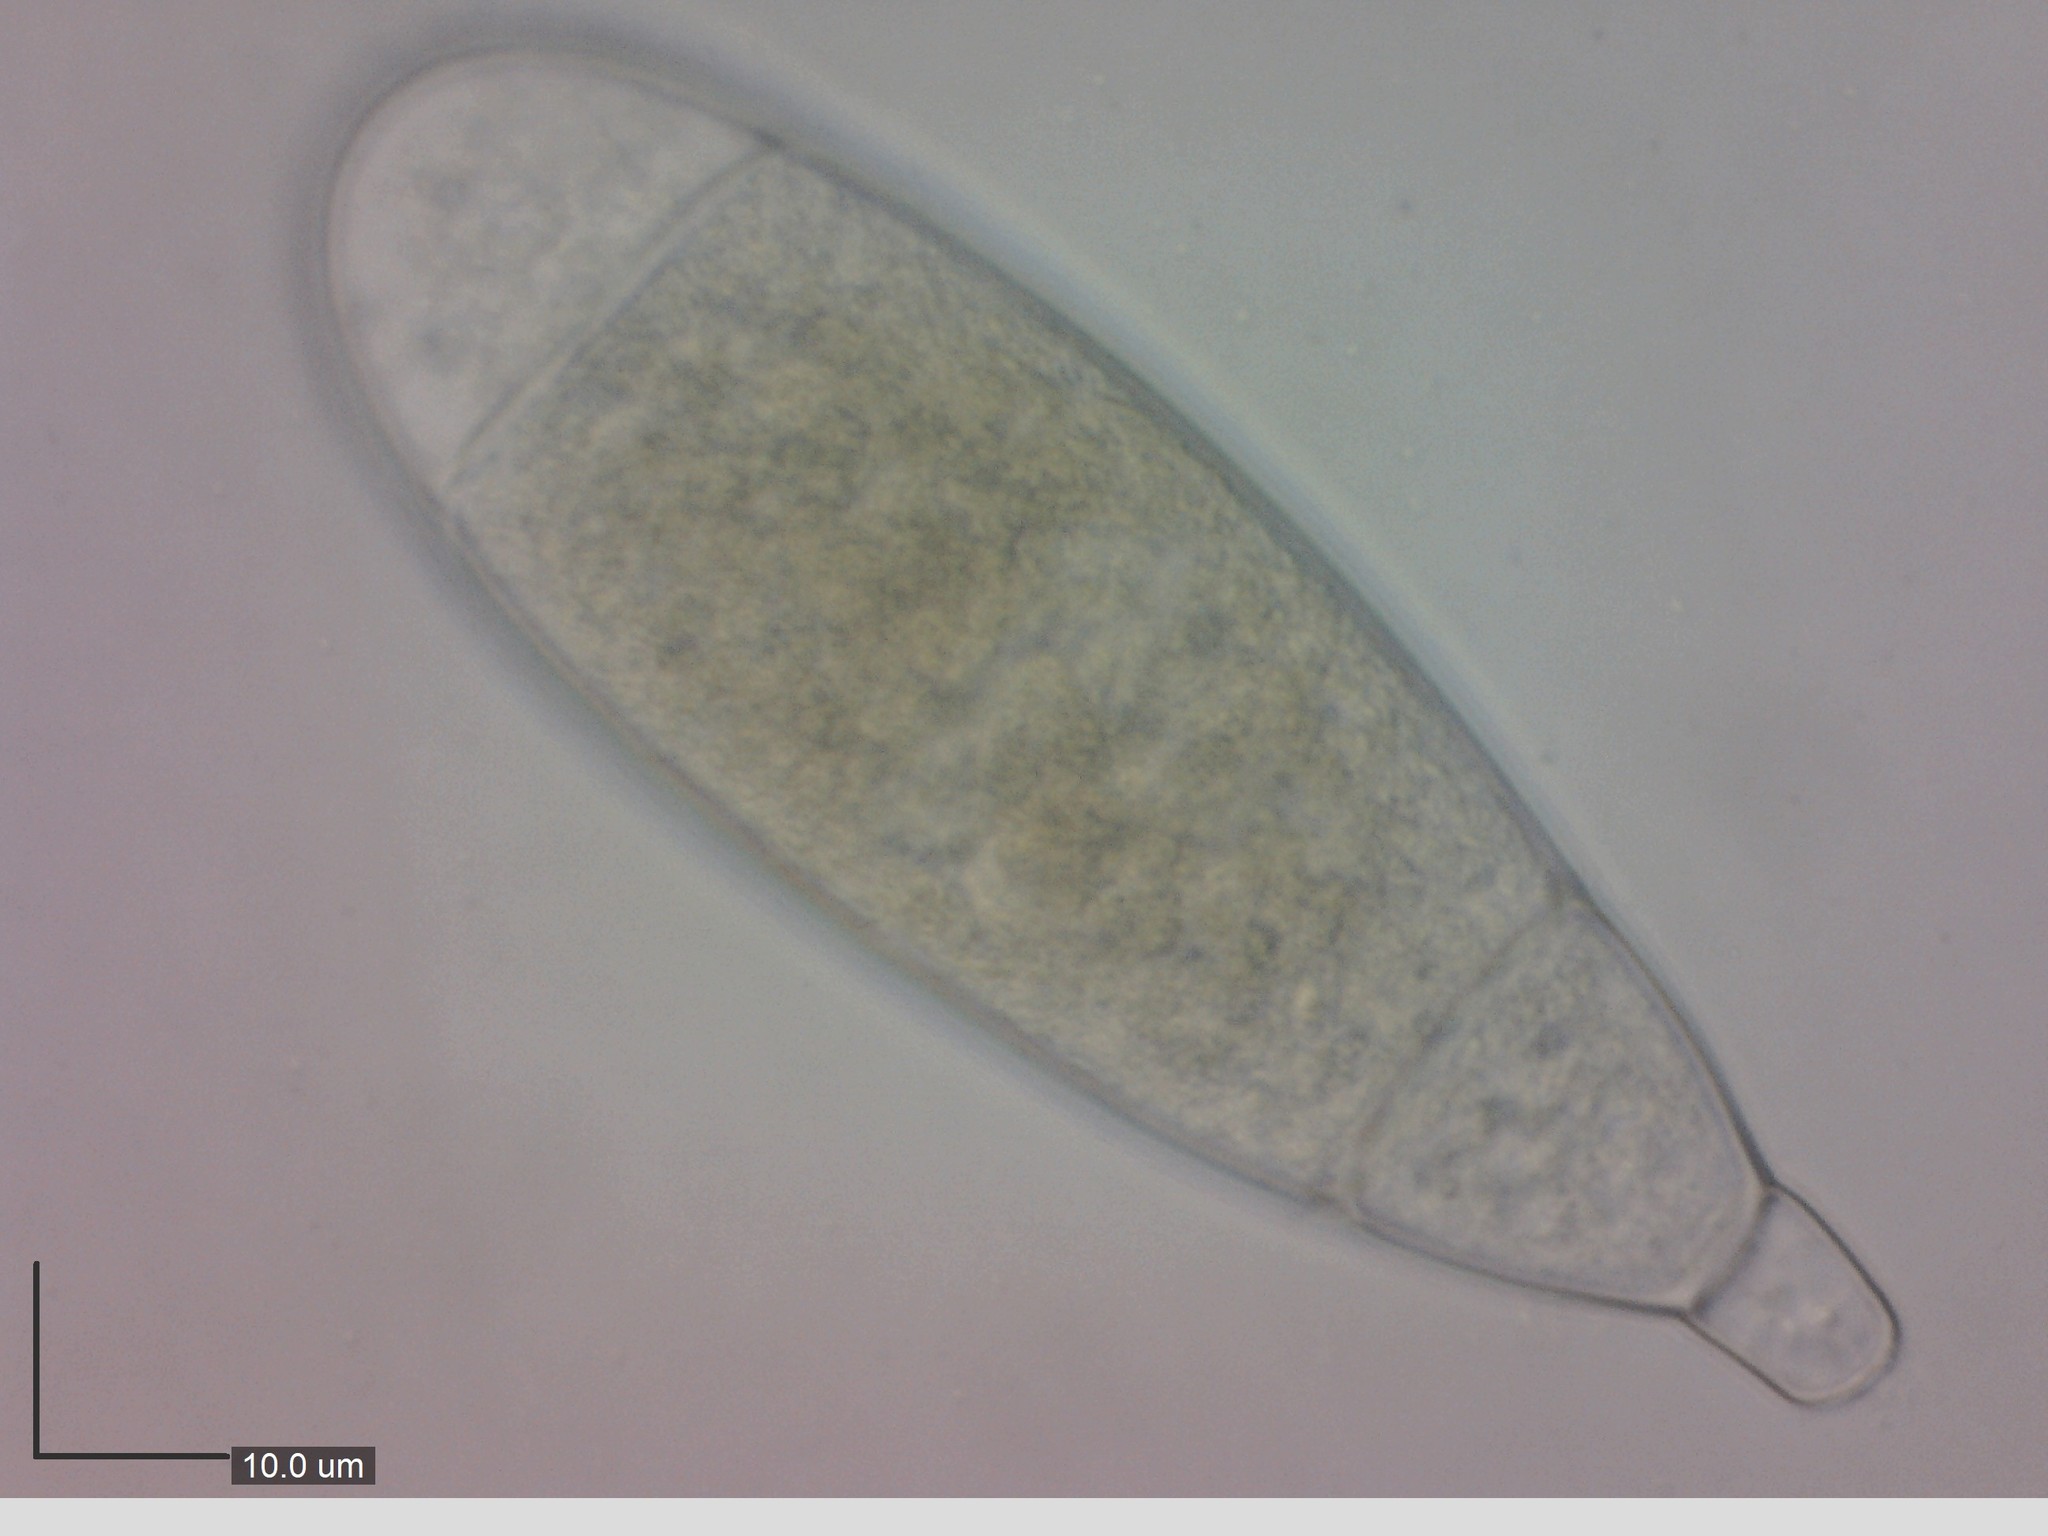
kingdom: Fungi
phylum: Ascomycota
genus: Bactridium
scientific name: Bactridium flavum
